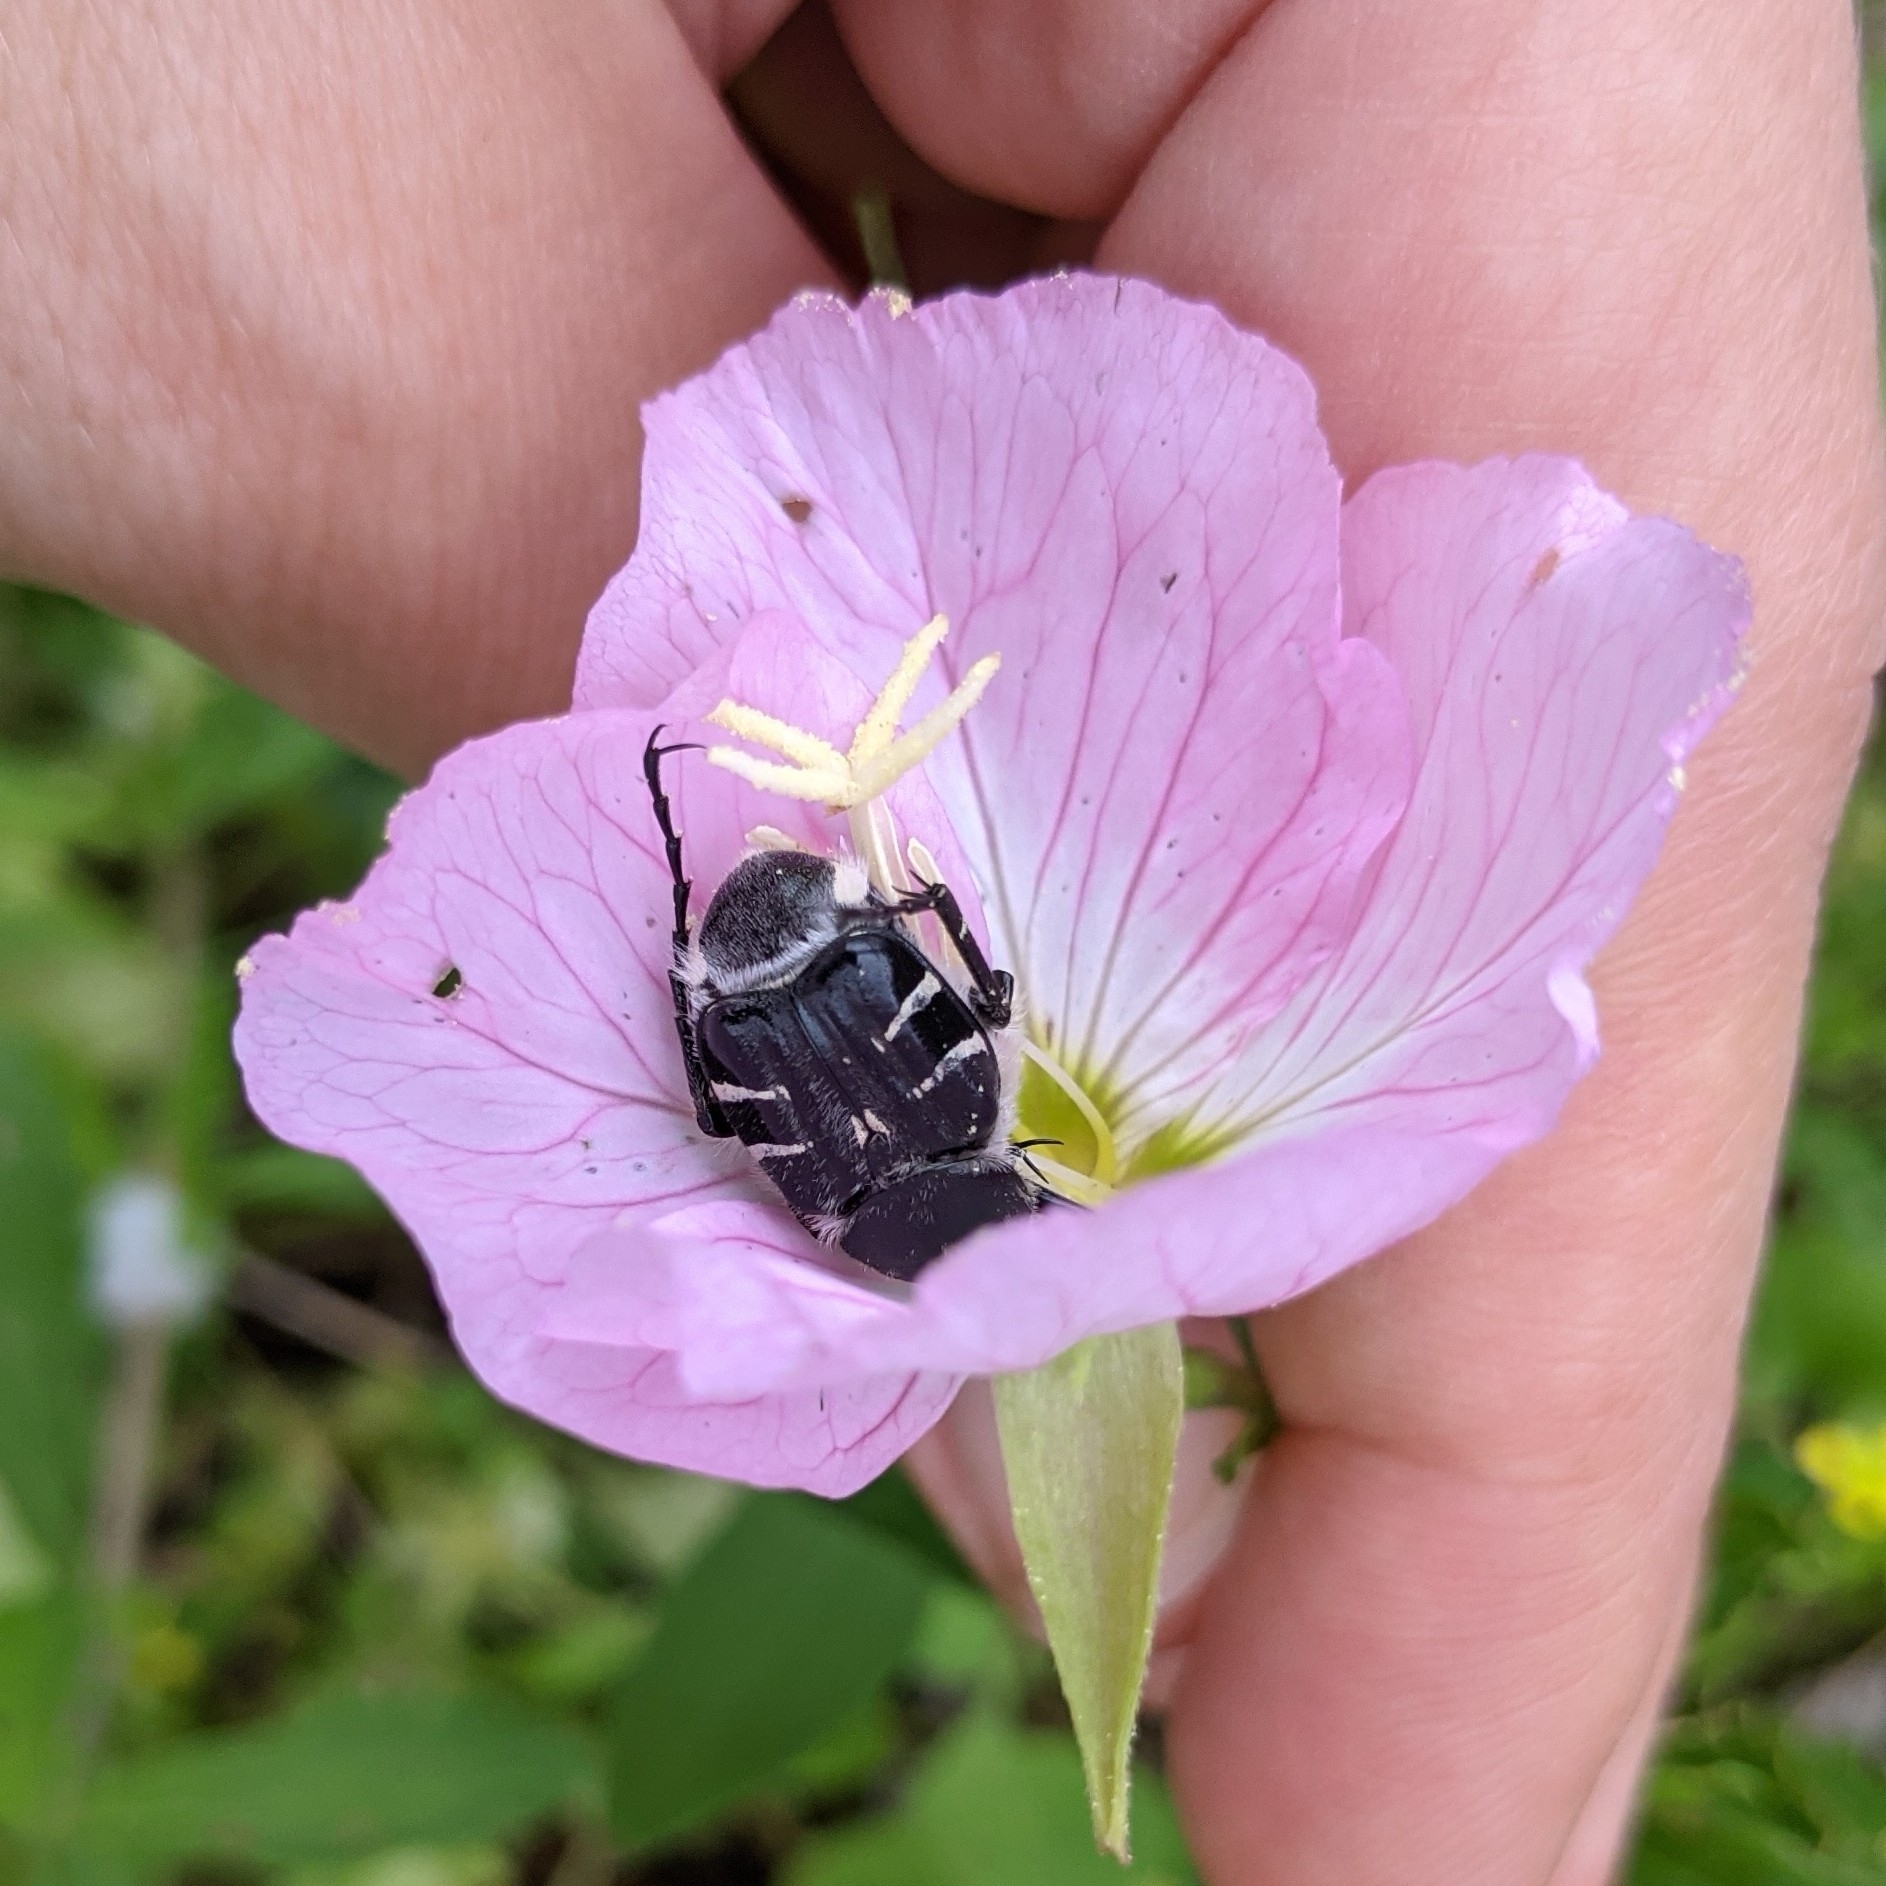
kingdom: Animalia
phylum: Arthropoda
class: Insecta
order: Coleoptera
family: Scarabaeidae
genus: Trichiotinus
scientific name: Trichiotinus texanus
